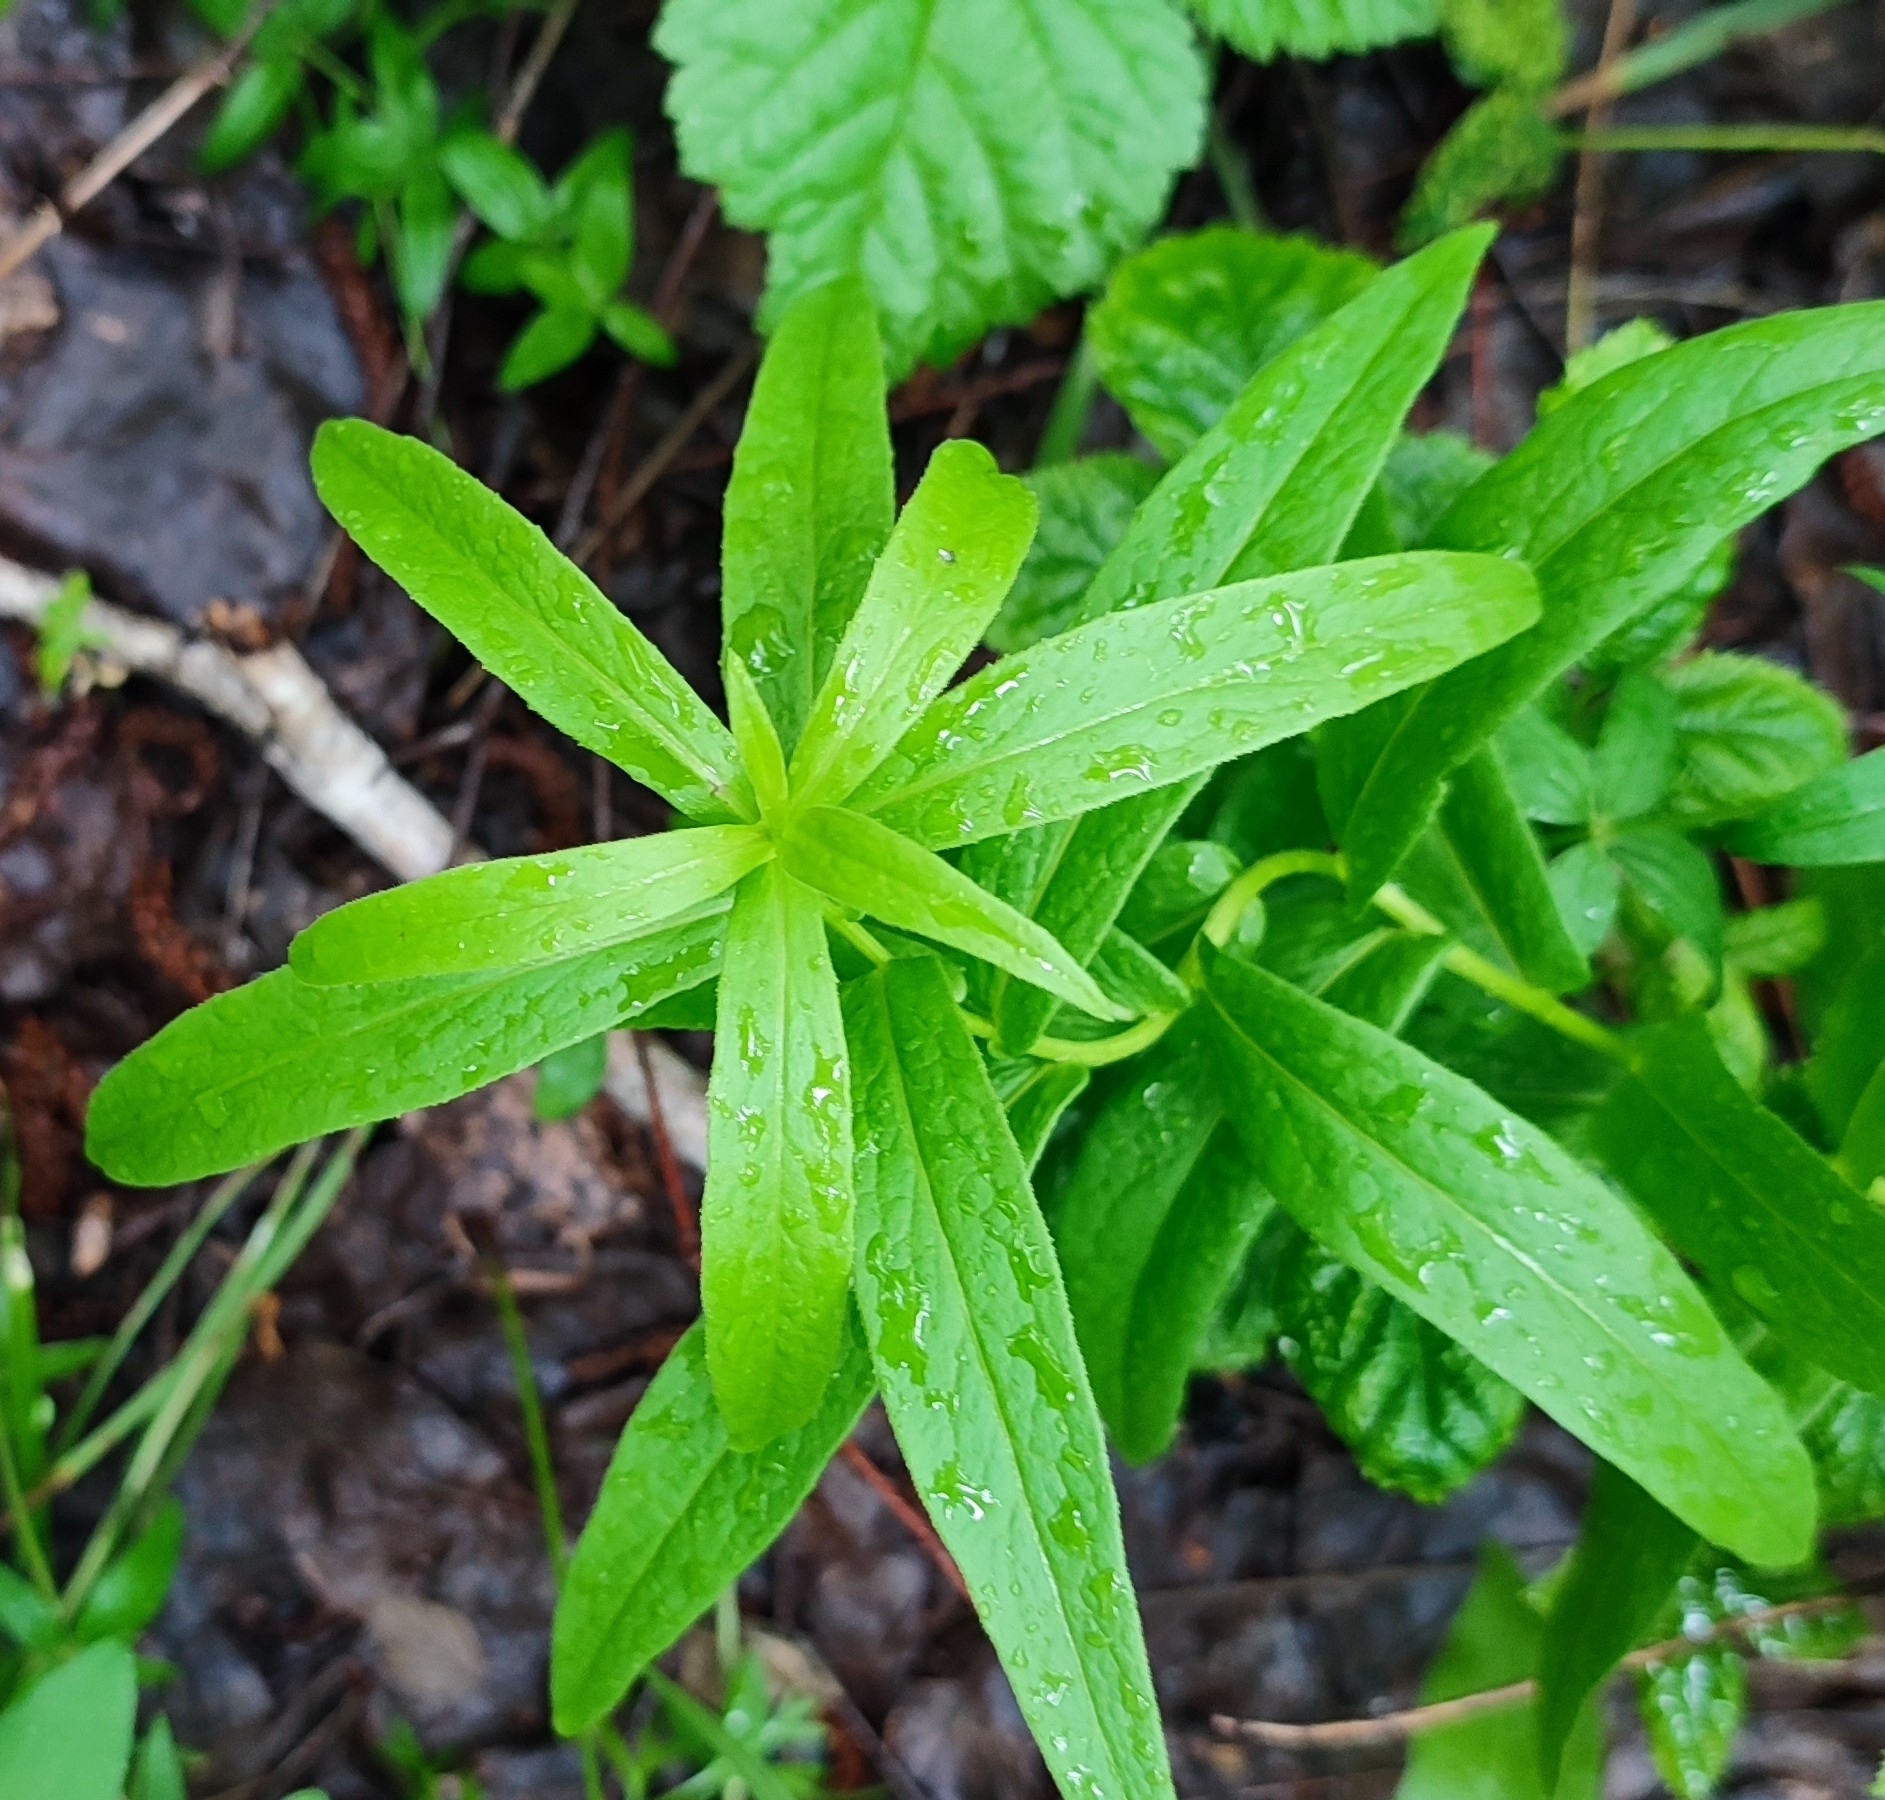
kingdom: Plantae
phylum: Tracheophyta
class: Magnoliopsida
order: Asterales
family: Asteraceae
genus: Pentanema
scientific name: Pentanema salicinum
